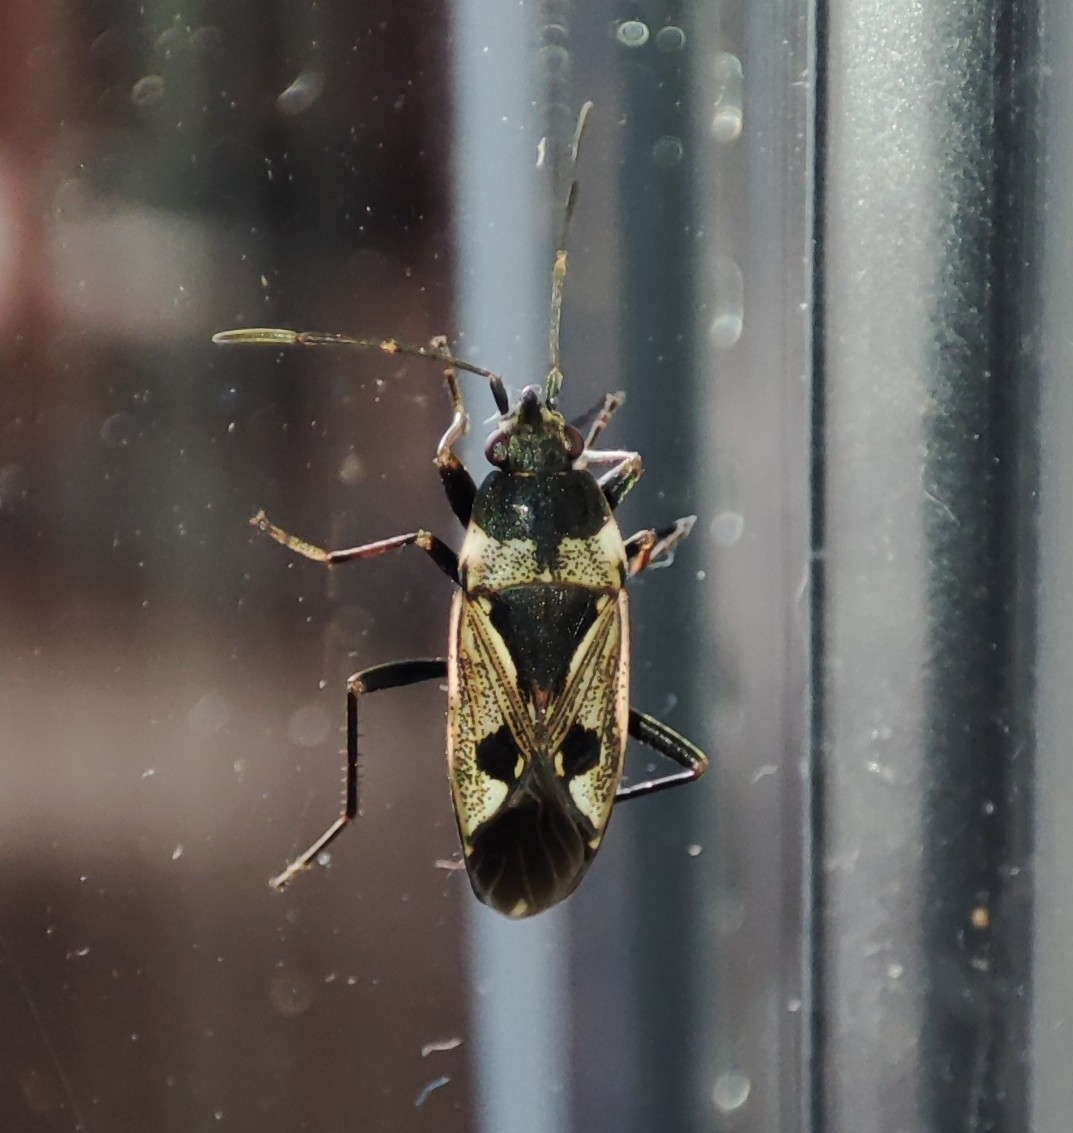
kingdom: Animalia
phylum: Arthropoda
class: Insecta
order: Hemiptera
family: Rhyparochromidae
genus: Rhyparochromus
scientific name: Rhyparochromus vulgaris
